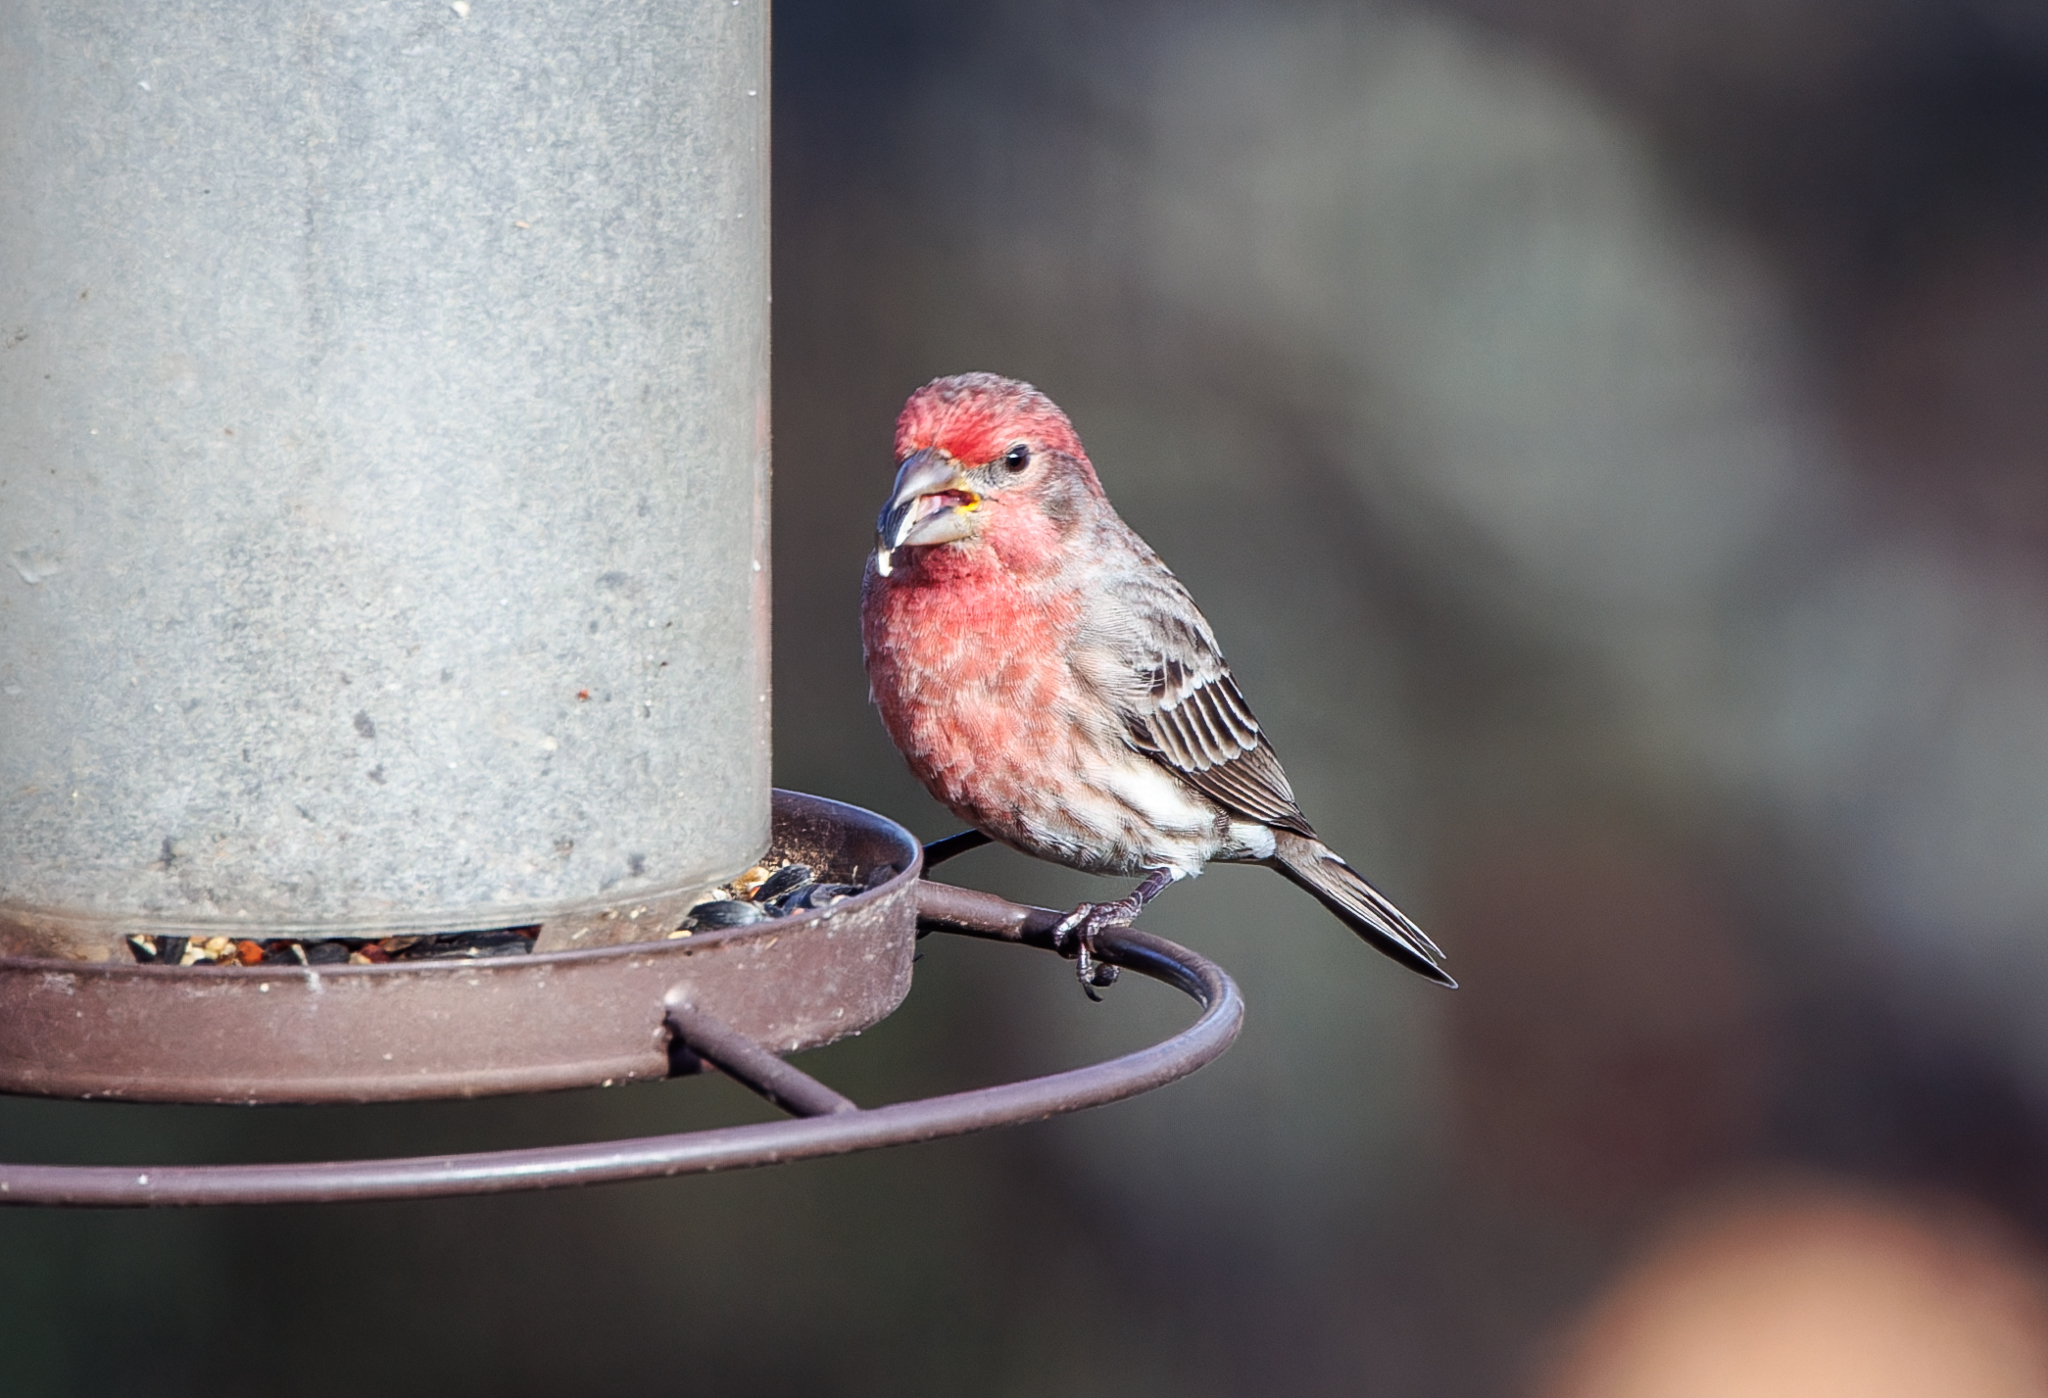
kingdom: Animalia
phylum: Chordata
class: Aves
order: Passeriformes
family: Fringillidae
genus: Haemorhous
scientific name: Haemorhous mexicanus
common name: House finch
